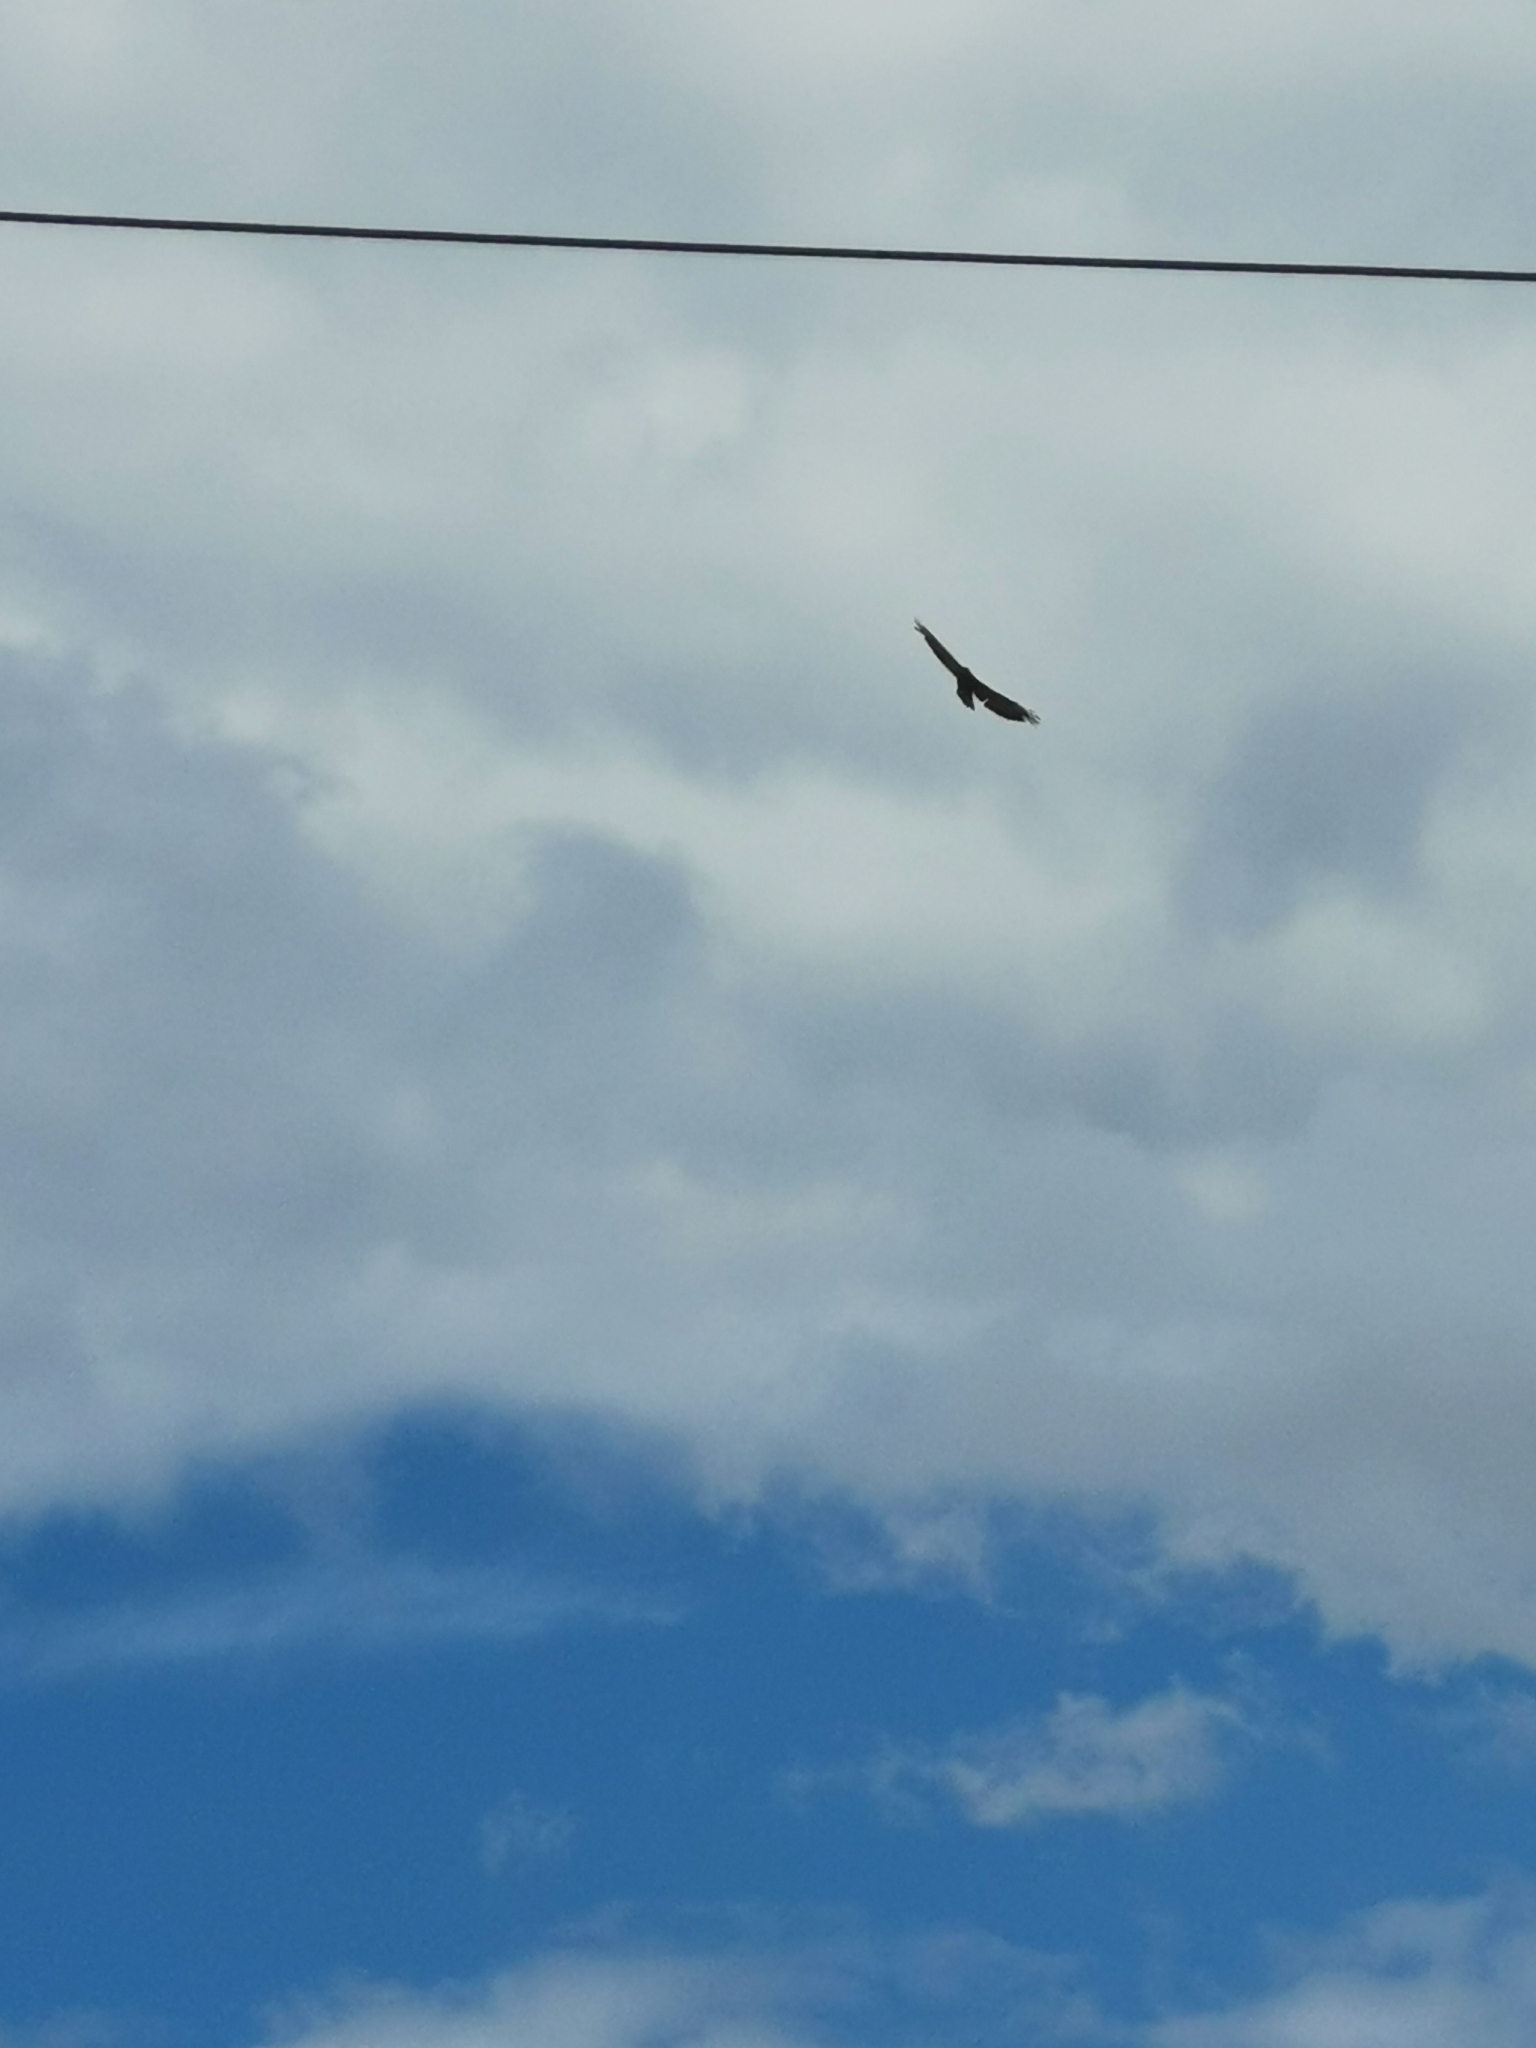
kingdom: Animalia
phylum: Chordata
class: Aves
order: Accipitriformes
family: Accipitridae
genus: Buteo
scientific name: Buteo buteo
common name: Common buzzard
